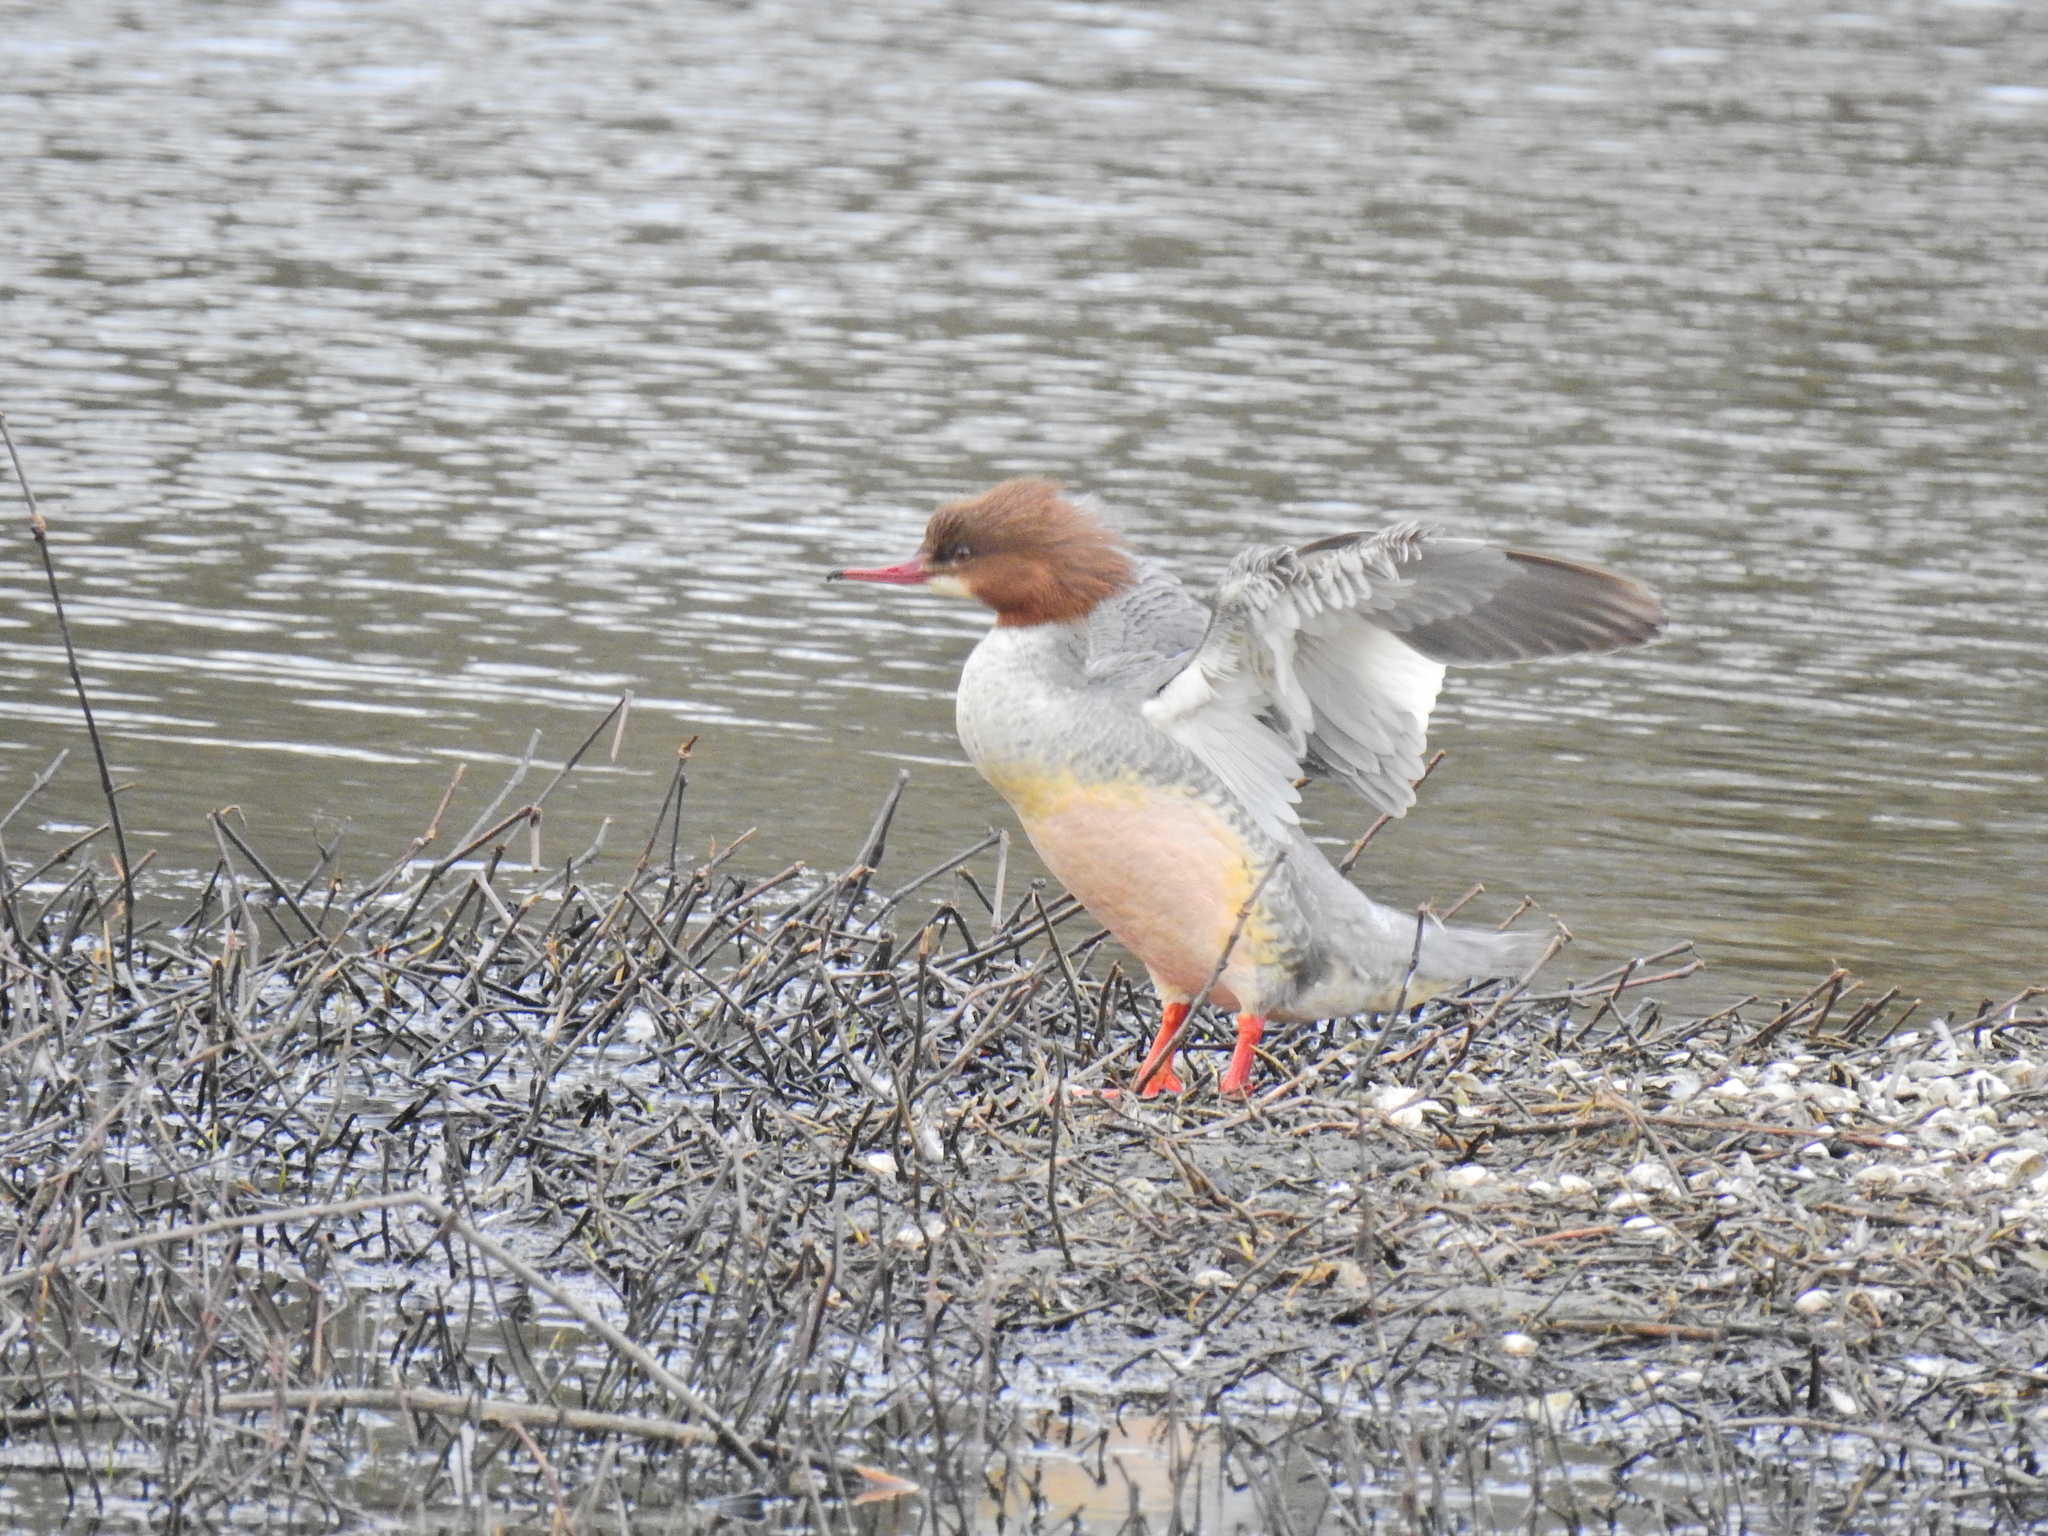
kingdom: Animalia
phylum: Chordata
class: Aves
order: Anseriformes
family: Anatidae
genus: Mergus
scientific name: Mergus merganser
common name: Common merganser
